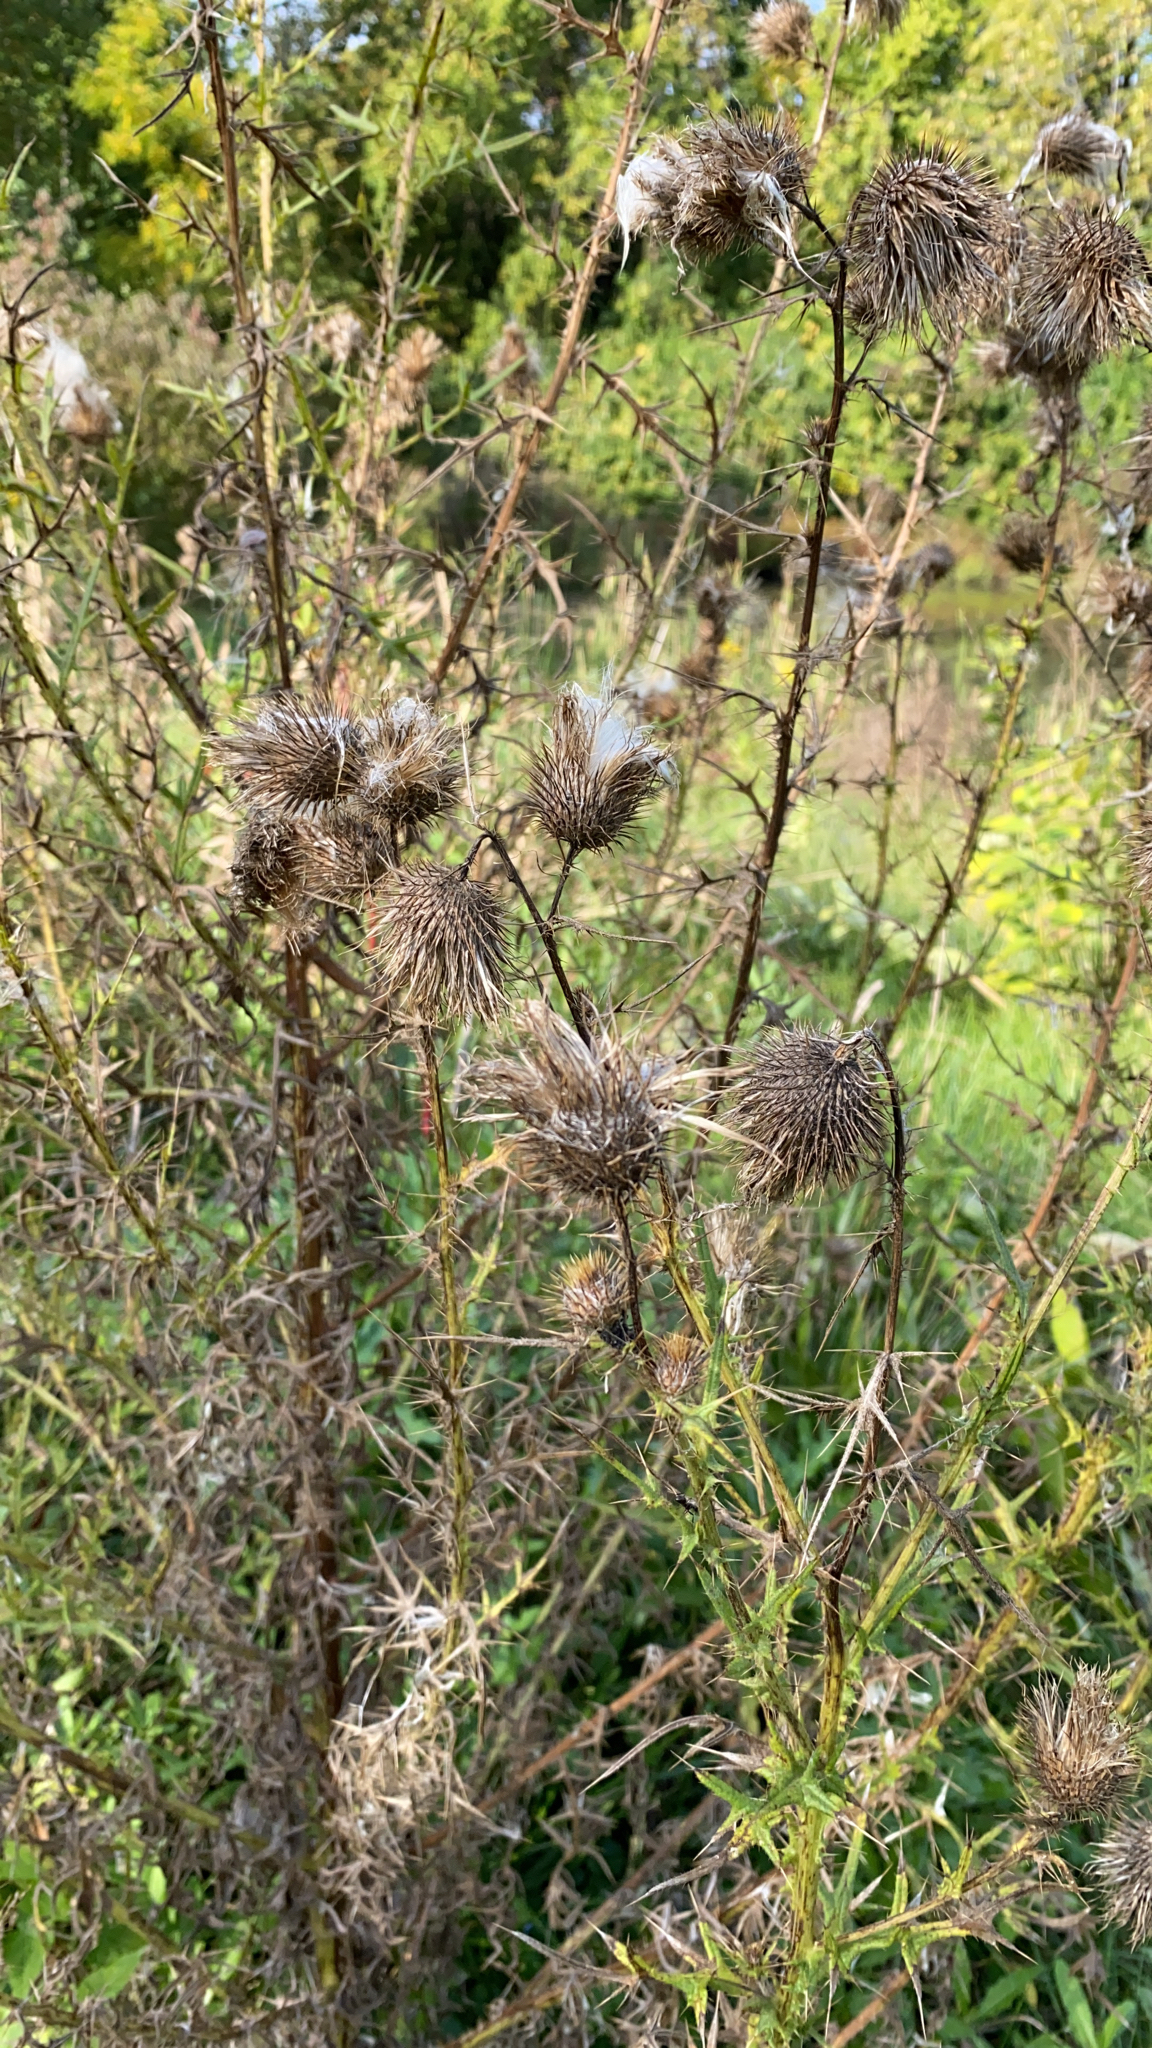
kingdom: Plantae
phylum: Tracheophyta
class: Magnoliopsida
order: Asterales
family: Asteraceae
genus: Cirsium
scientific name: Cirsium vulgare
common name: Bull thistle
